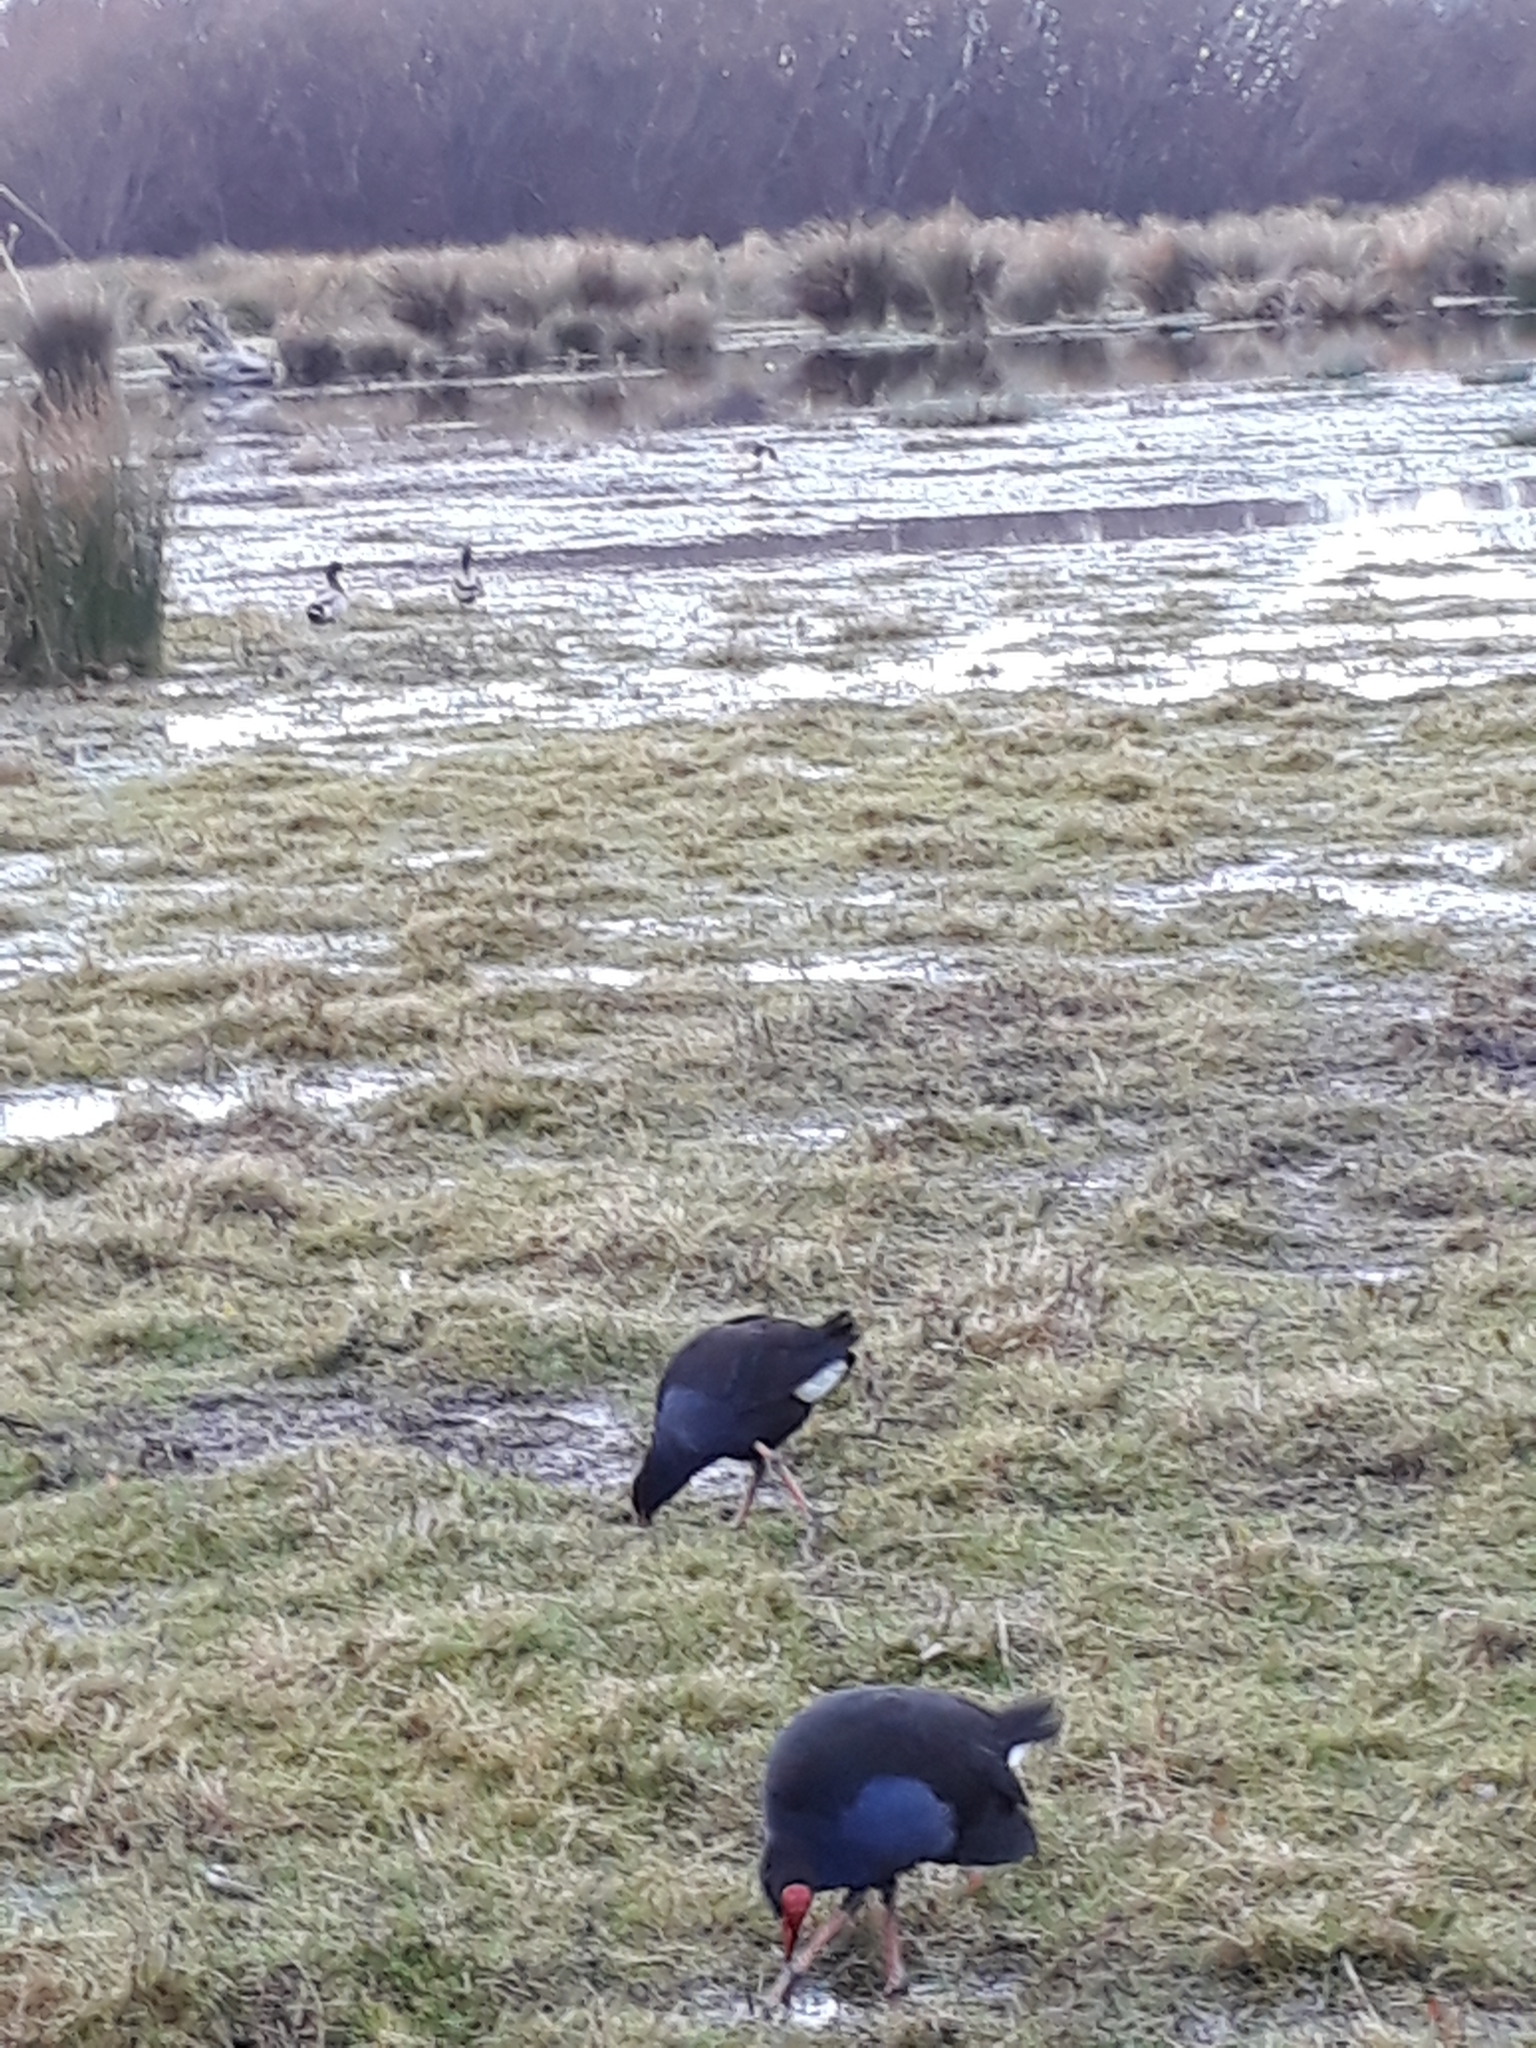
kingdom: Animalia
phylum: Chordata
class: Aves
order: Gruiformes
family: Rallidae
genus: Porphyrio
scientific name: Porphyrio melanotus
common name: Australasian swamphen
